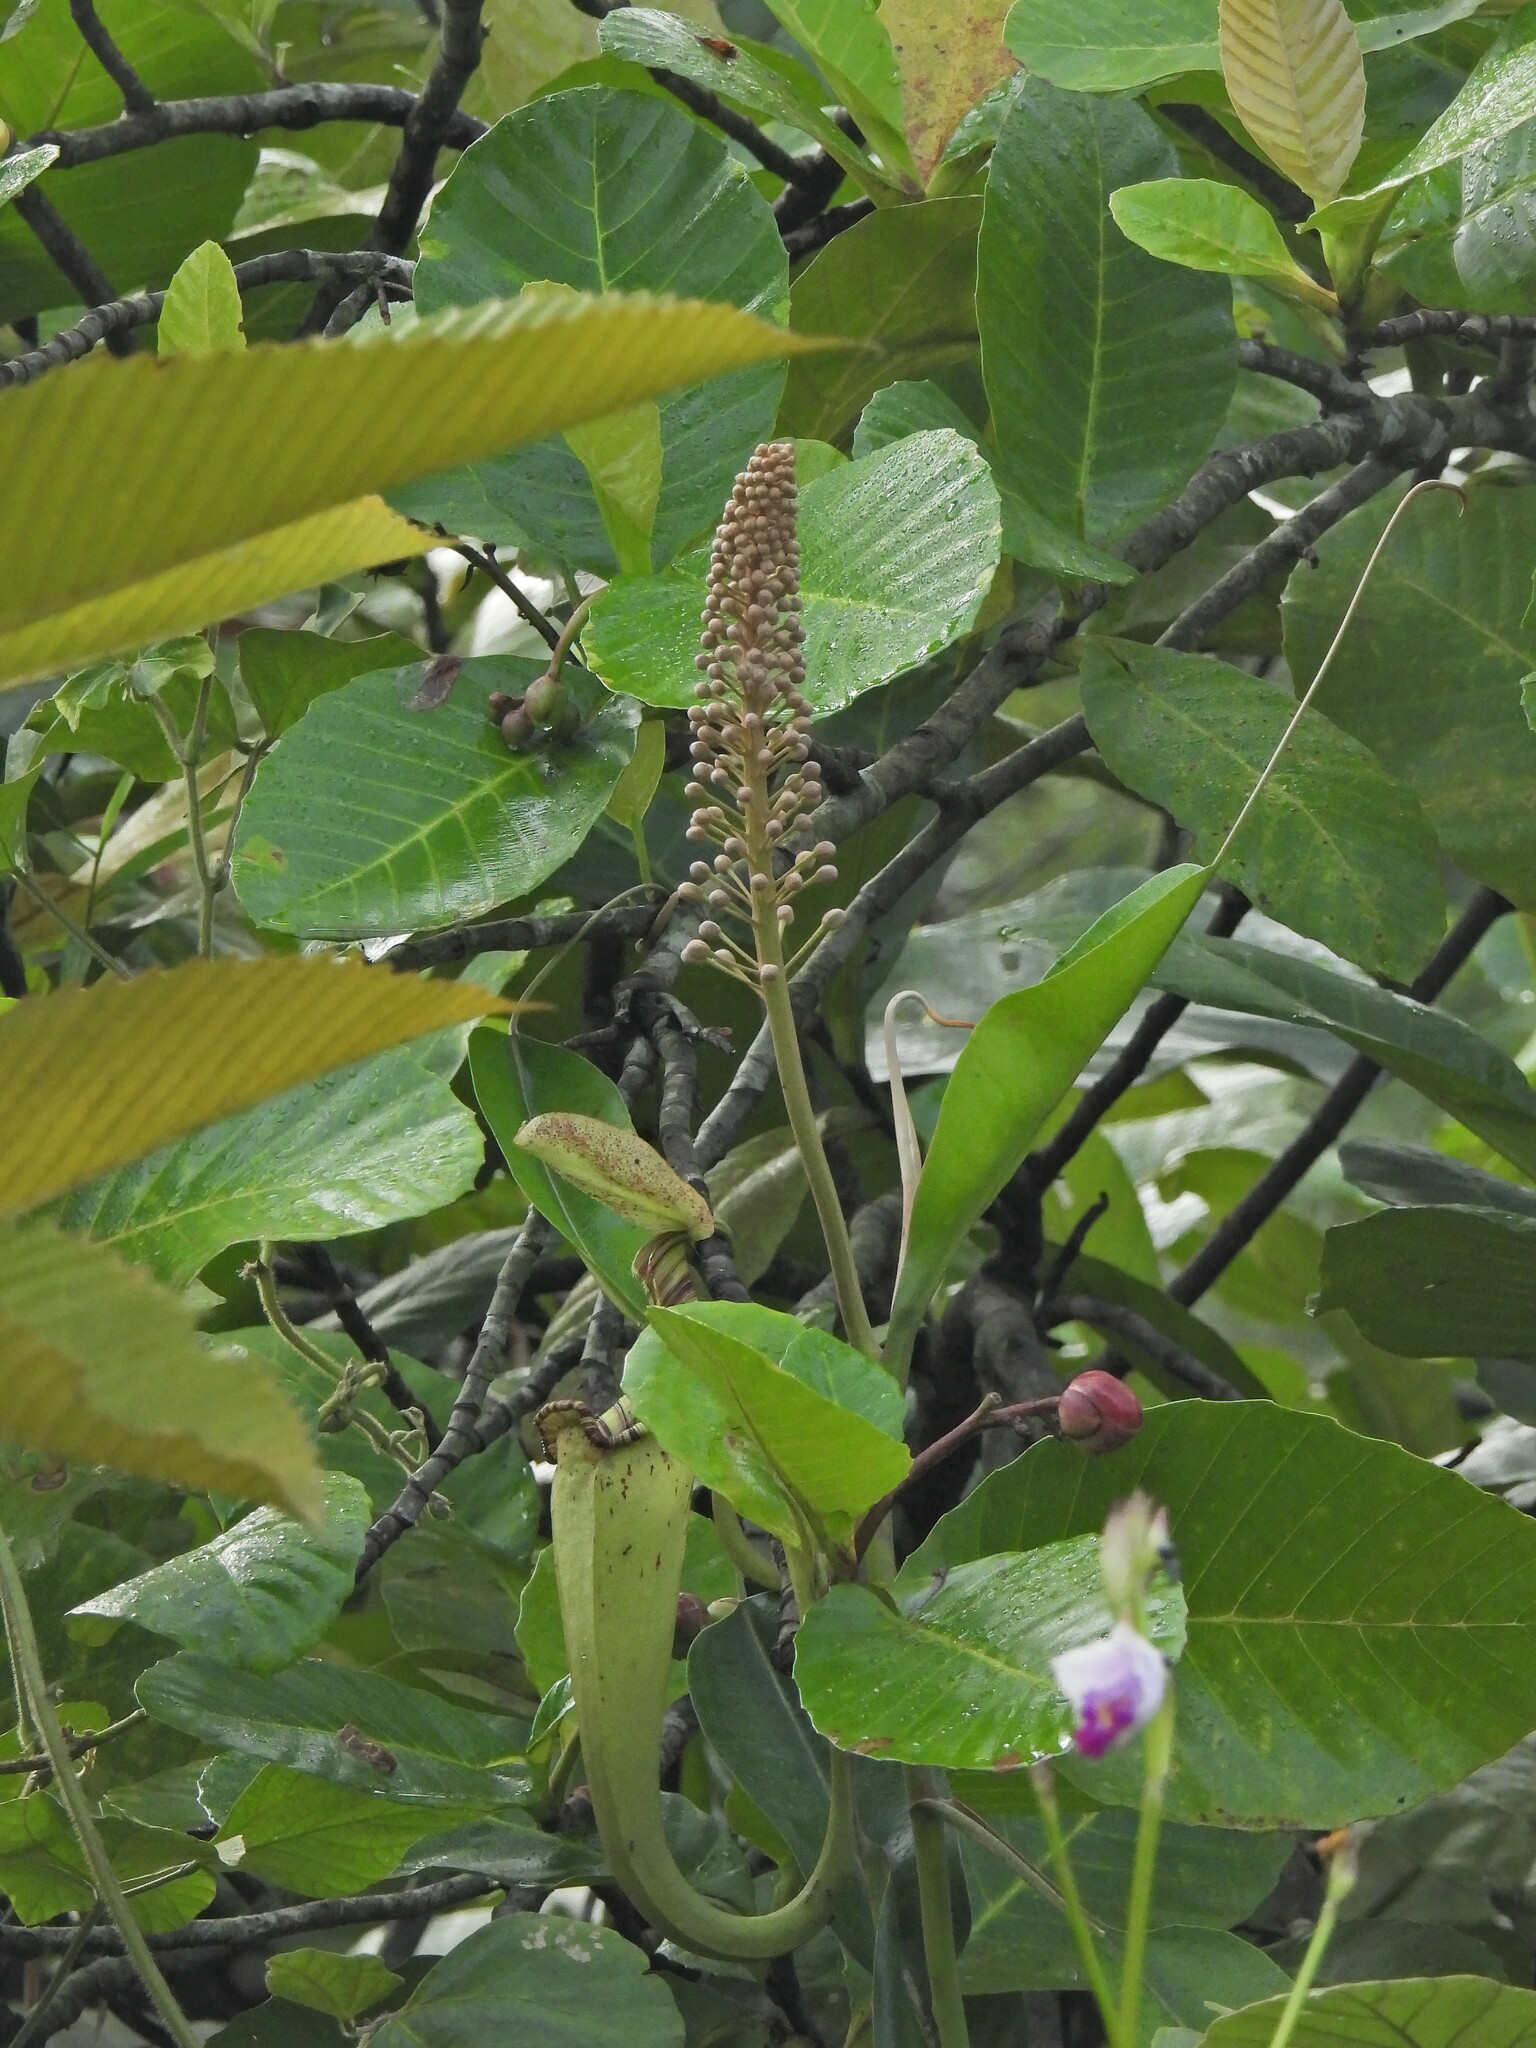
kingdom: Plantae
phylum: Tracheophyta
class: Magnoliopsida
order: Caryophyllales
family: Nepenthaceae
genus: Nepenthes
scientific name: Nepenthes rafflesiana
